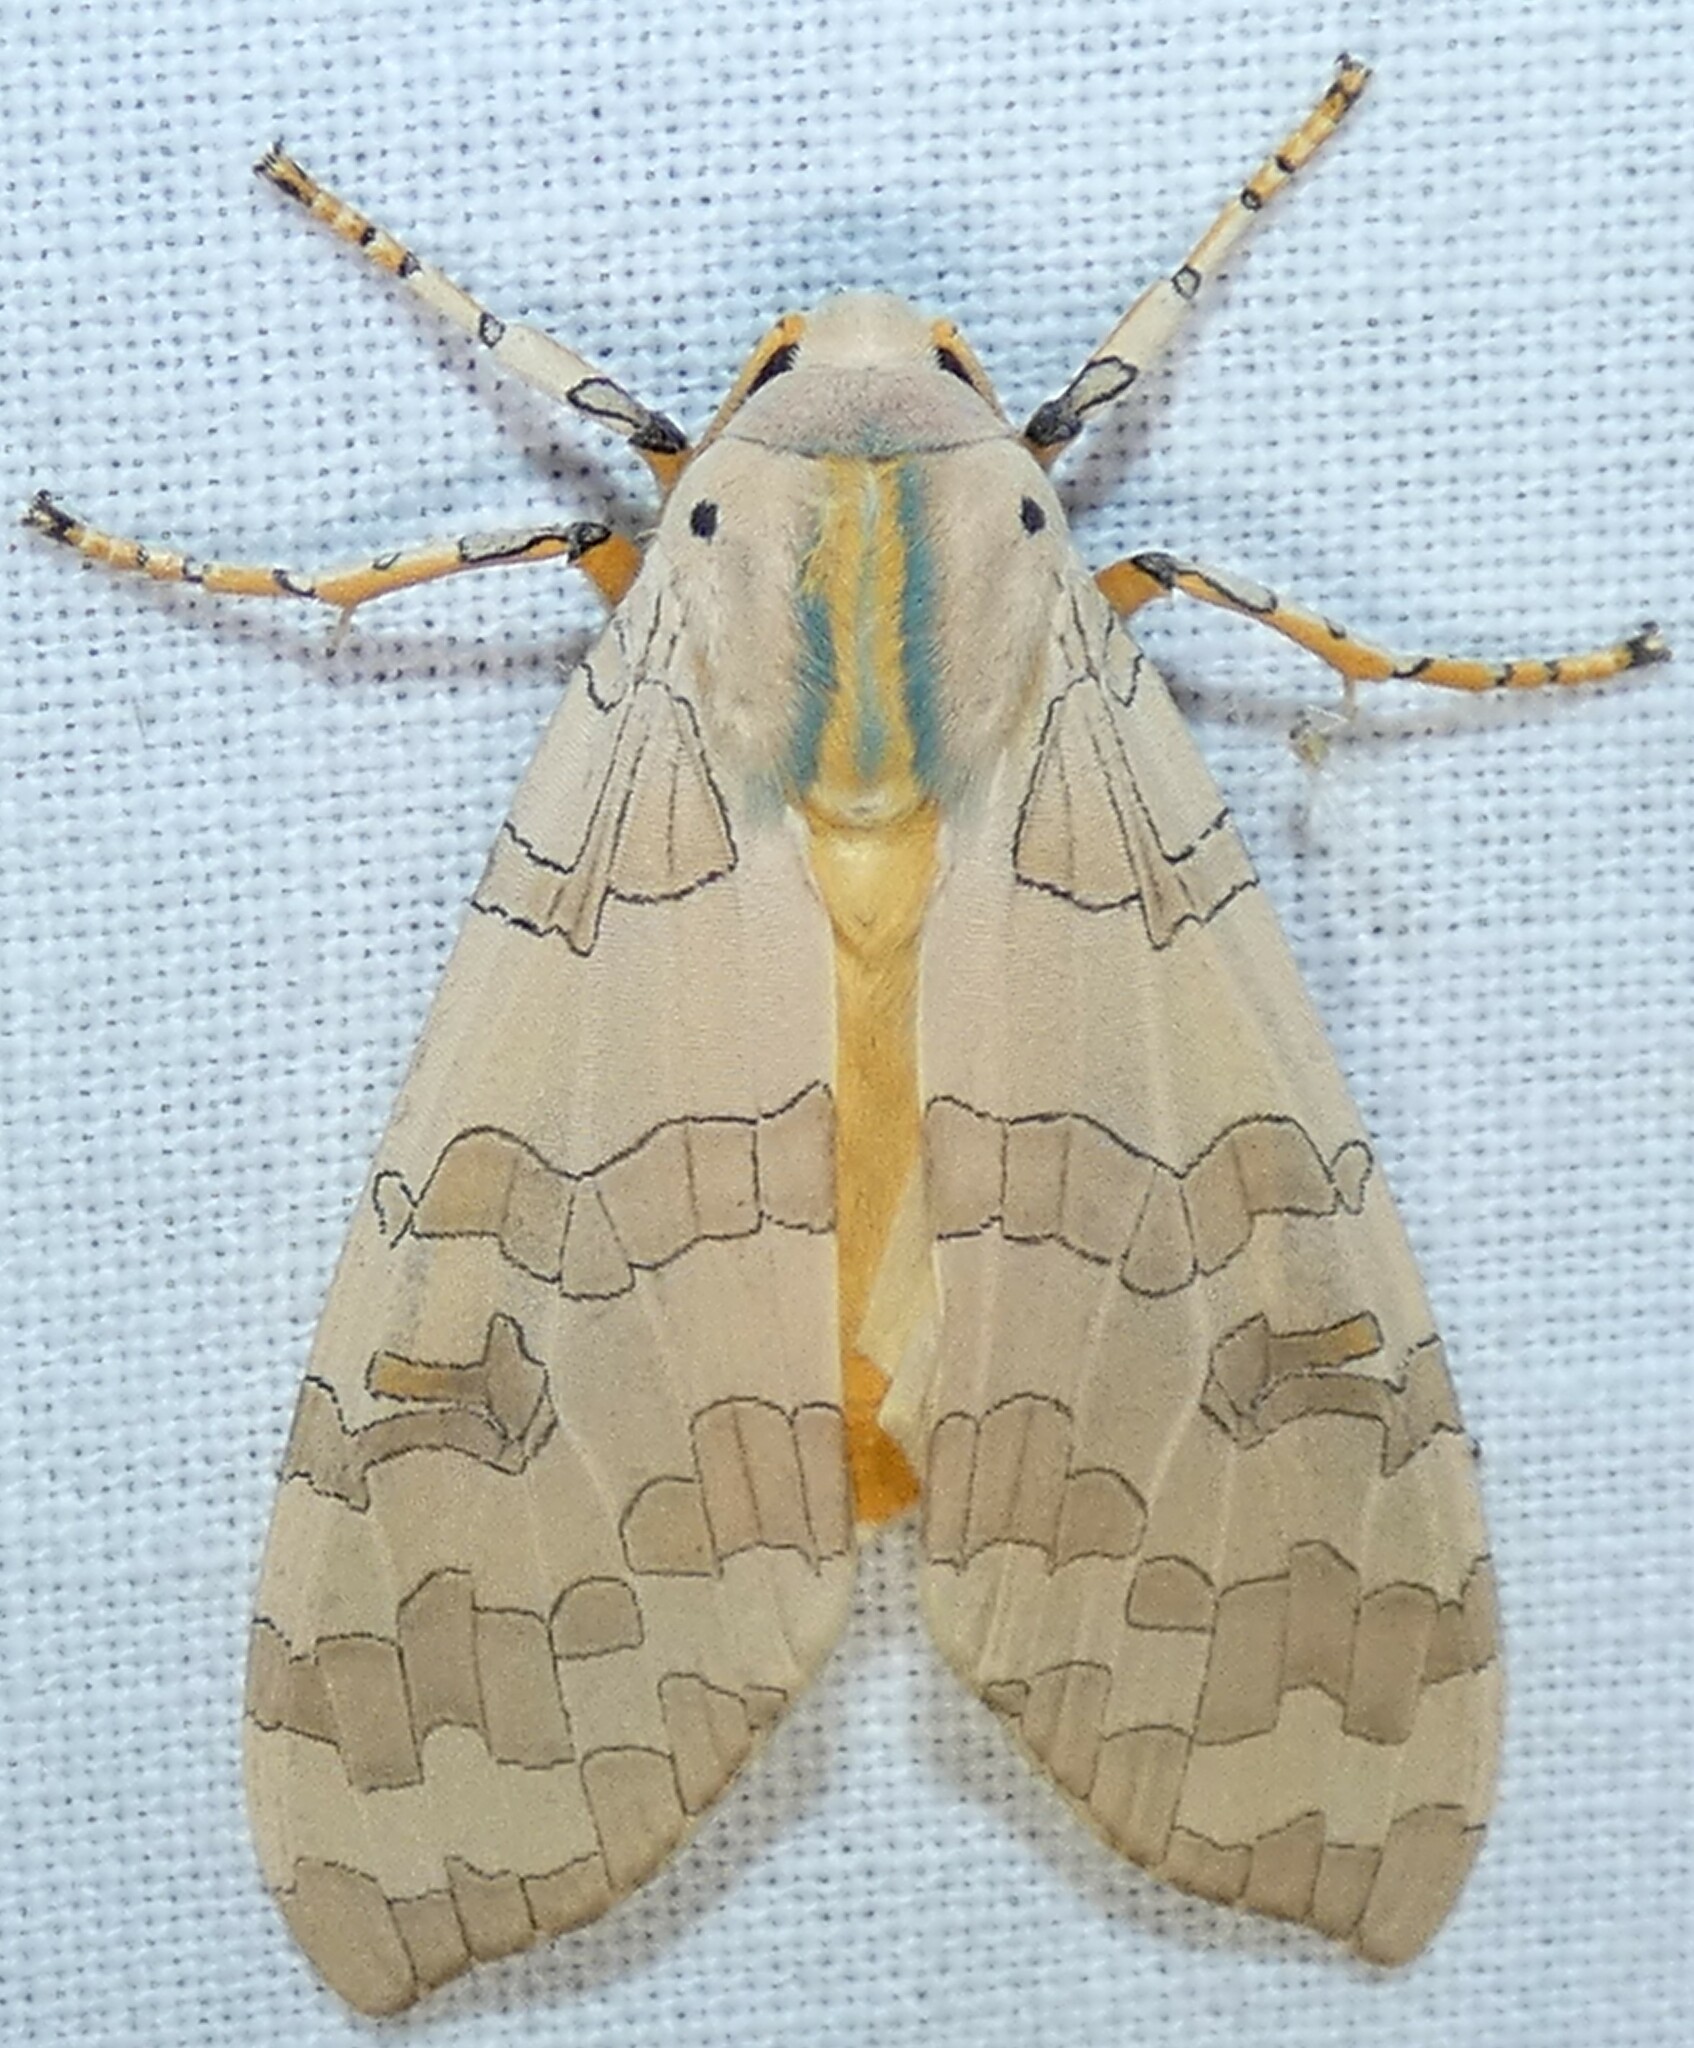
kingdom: Animalia
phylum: Arthropoda
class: Insecta
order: Lepidoptera
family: Erebidae
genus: Halysidota
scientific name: Halysidota
